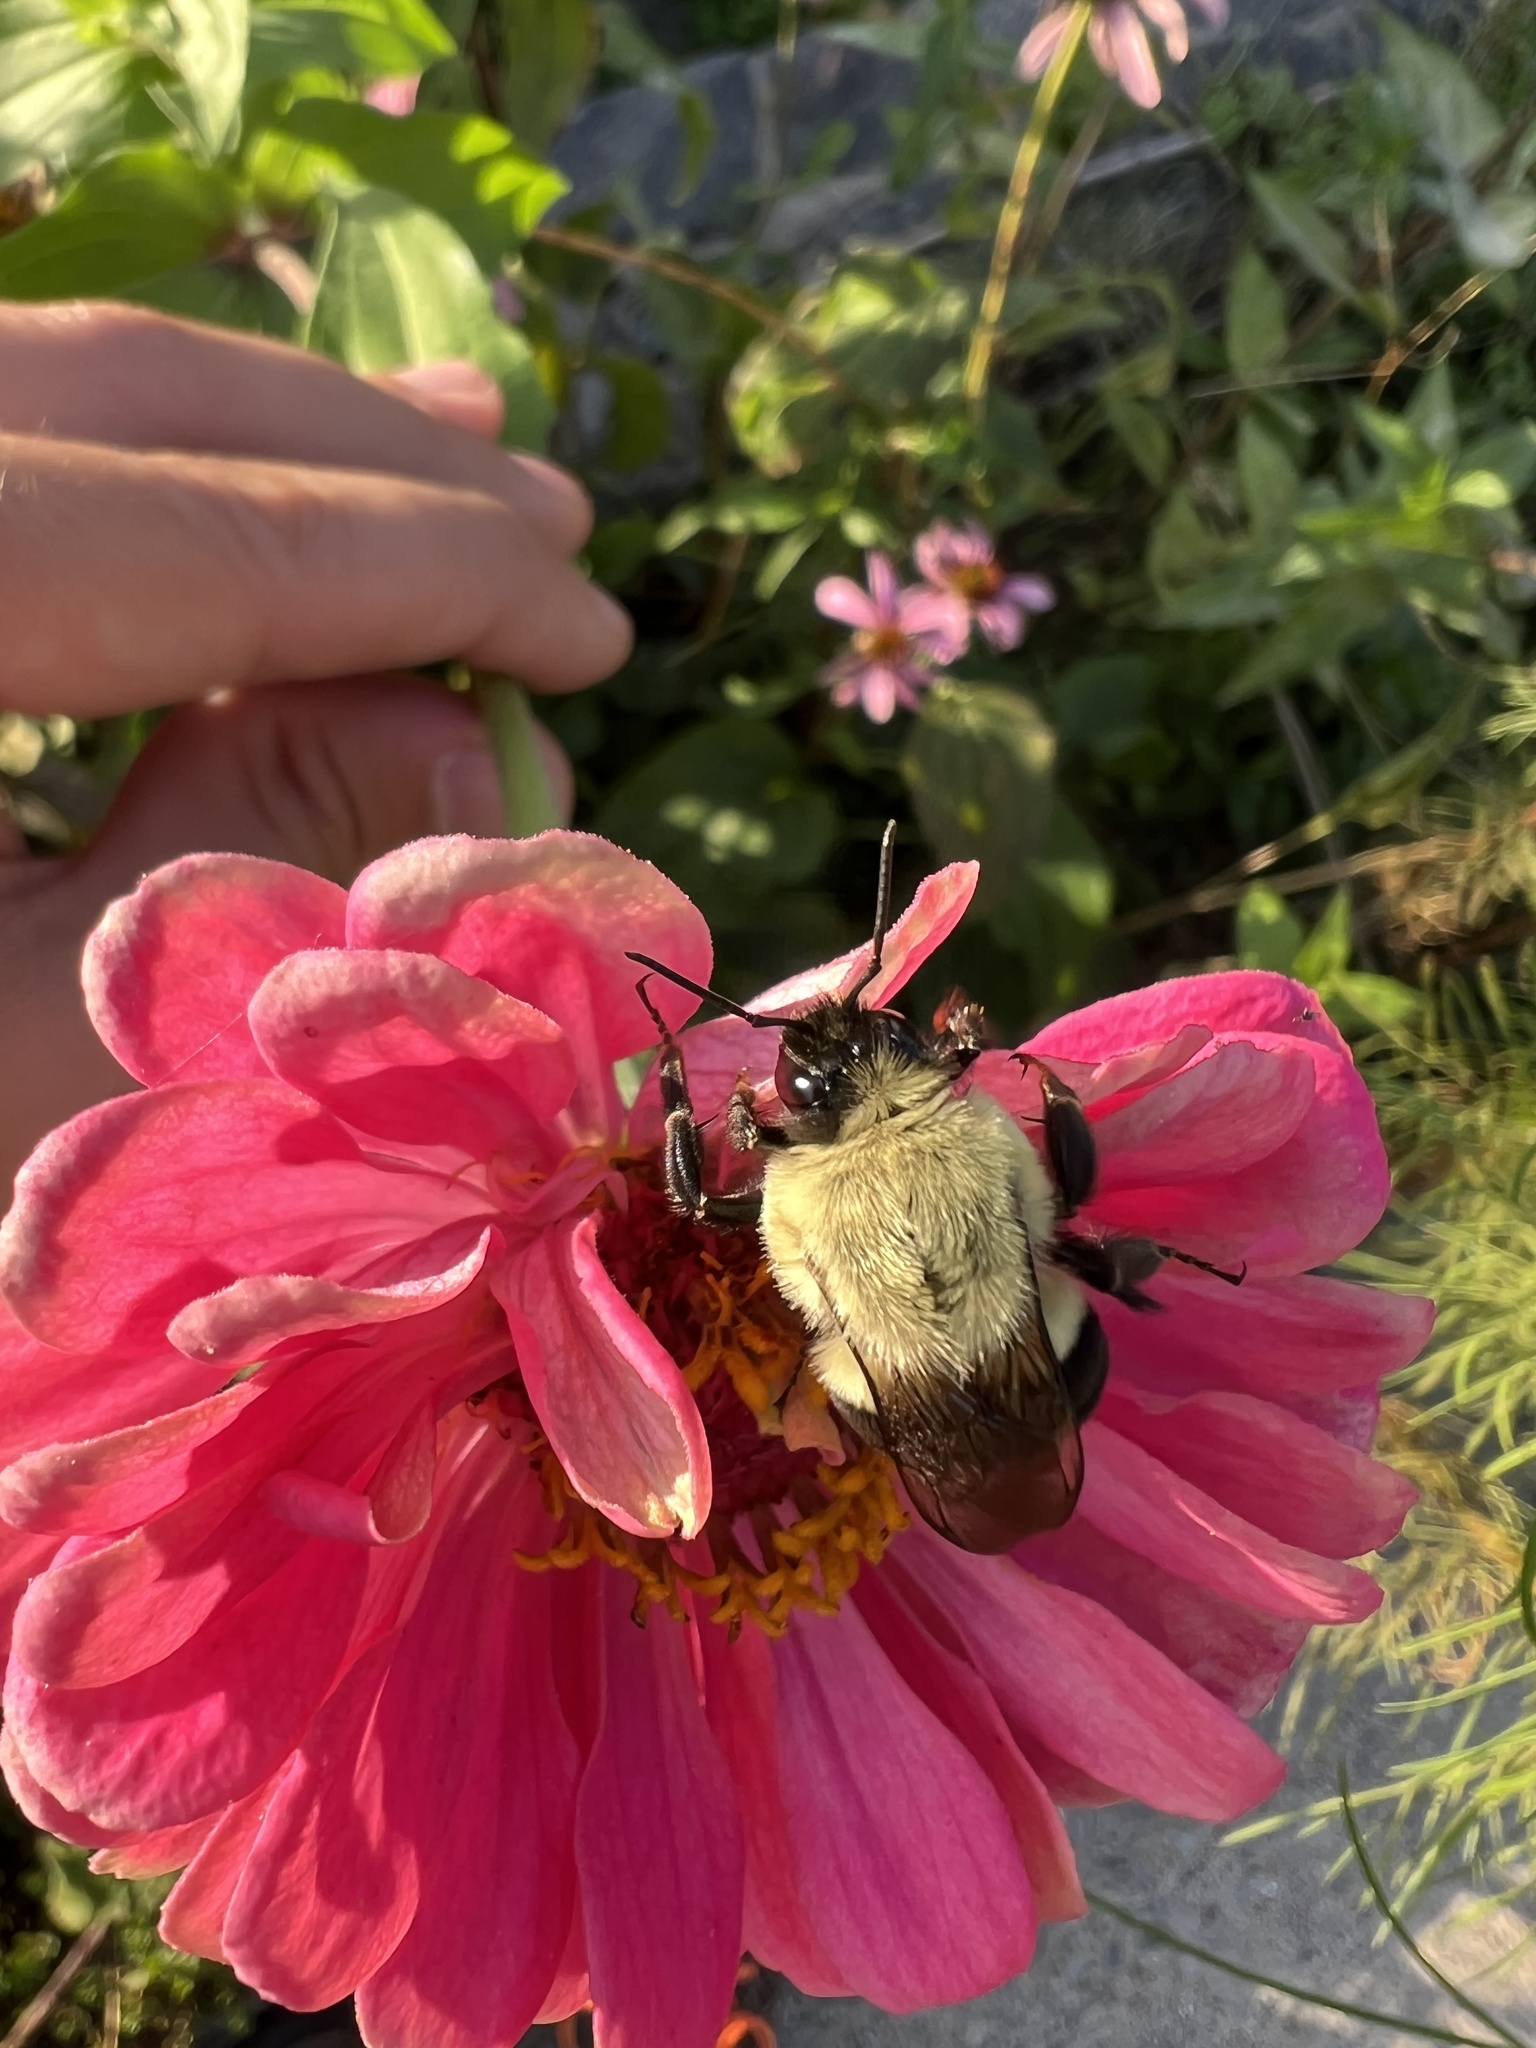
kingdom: Animalia
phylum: Arthropoda
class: Insecta
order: Hymenoptera
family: Apidae
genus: Bombus
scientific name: Bombus impatiens
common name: Common eastern bumble bee
